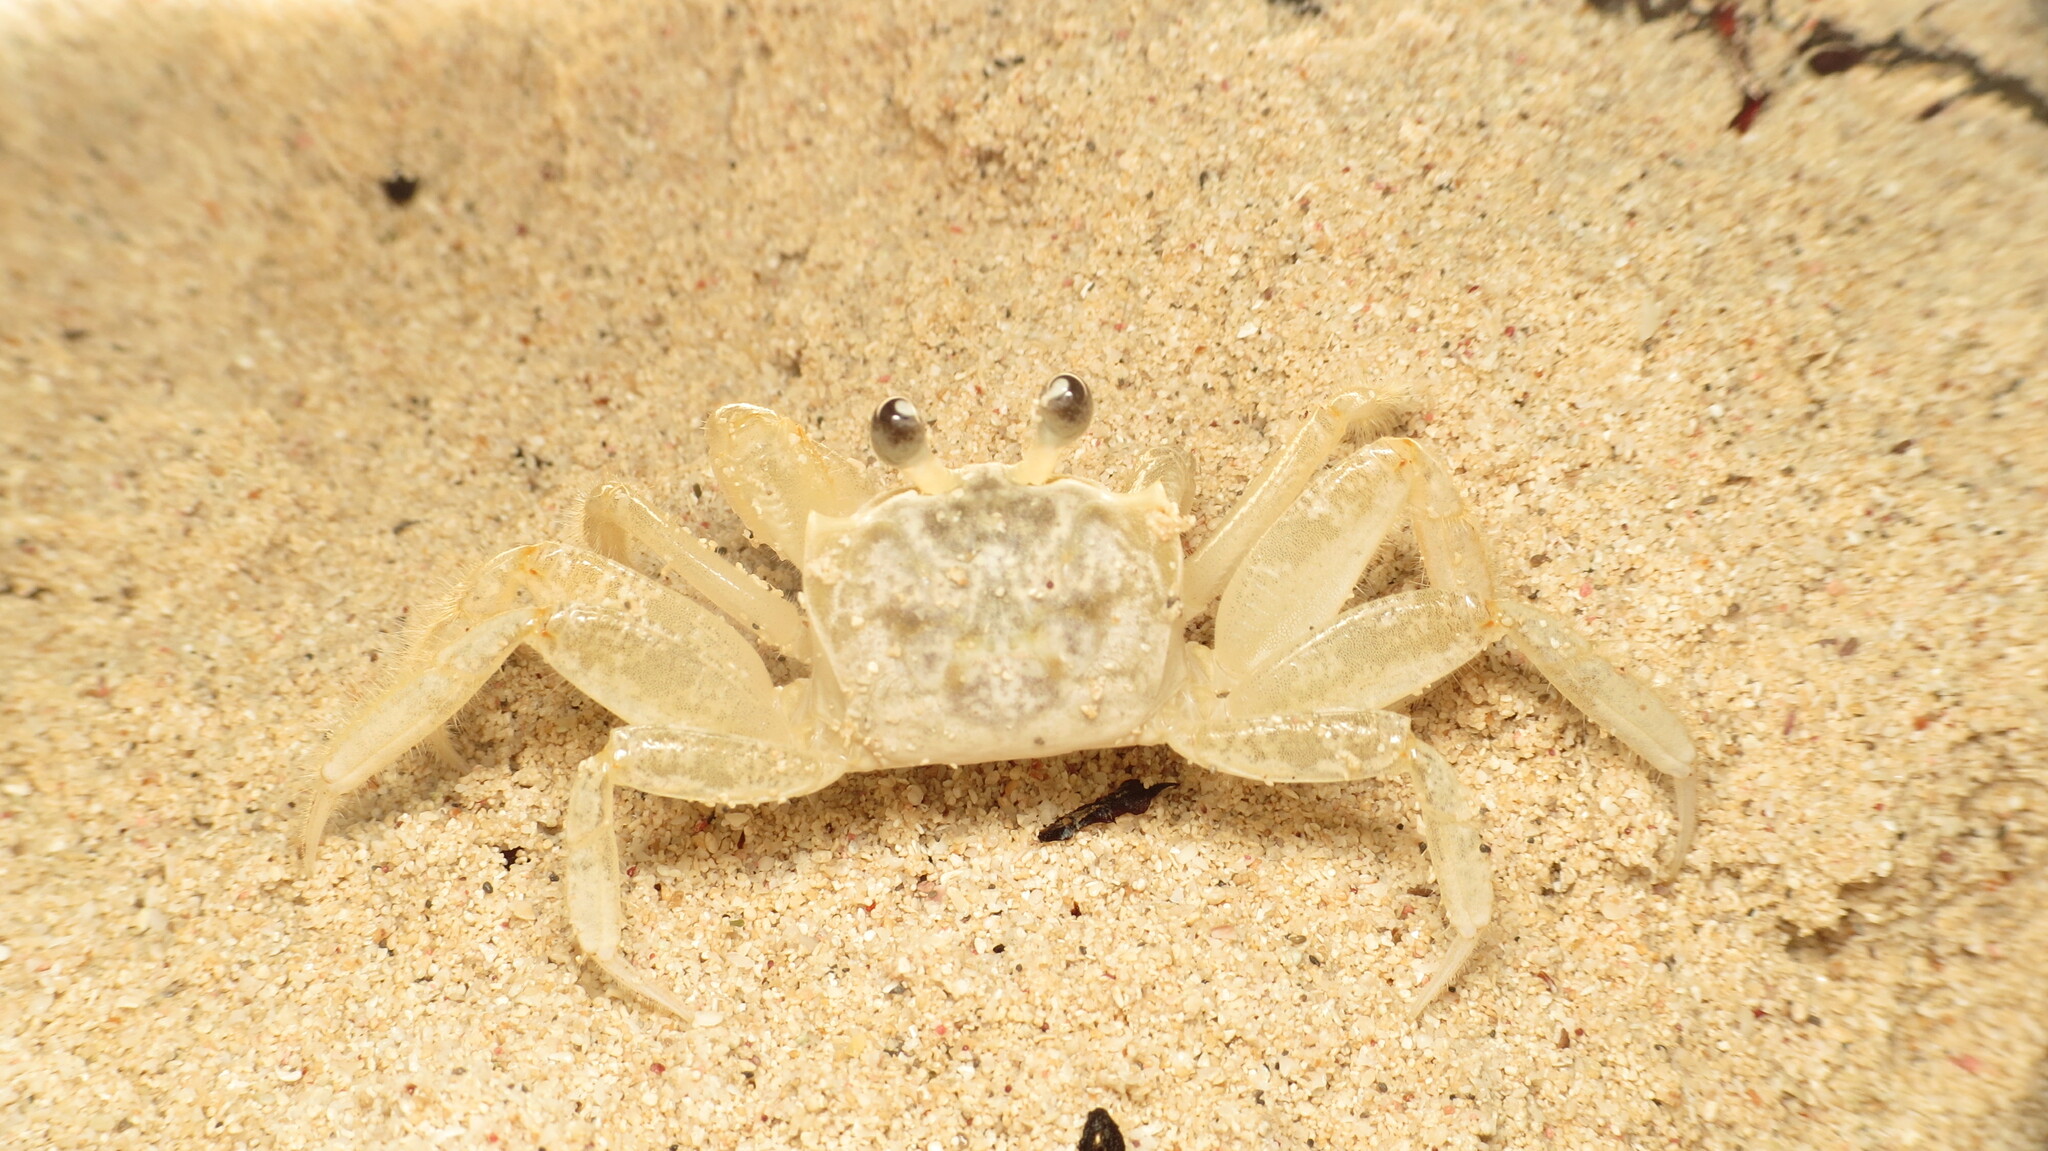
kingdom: Animalia
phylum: Arthropoda
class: Malacostraca
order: Decapoda
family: Ocypodidae
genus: Ocypode
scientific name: Ocypode quadrata
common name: Ghost crab
